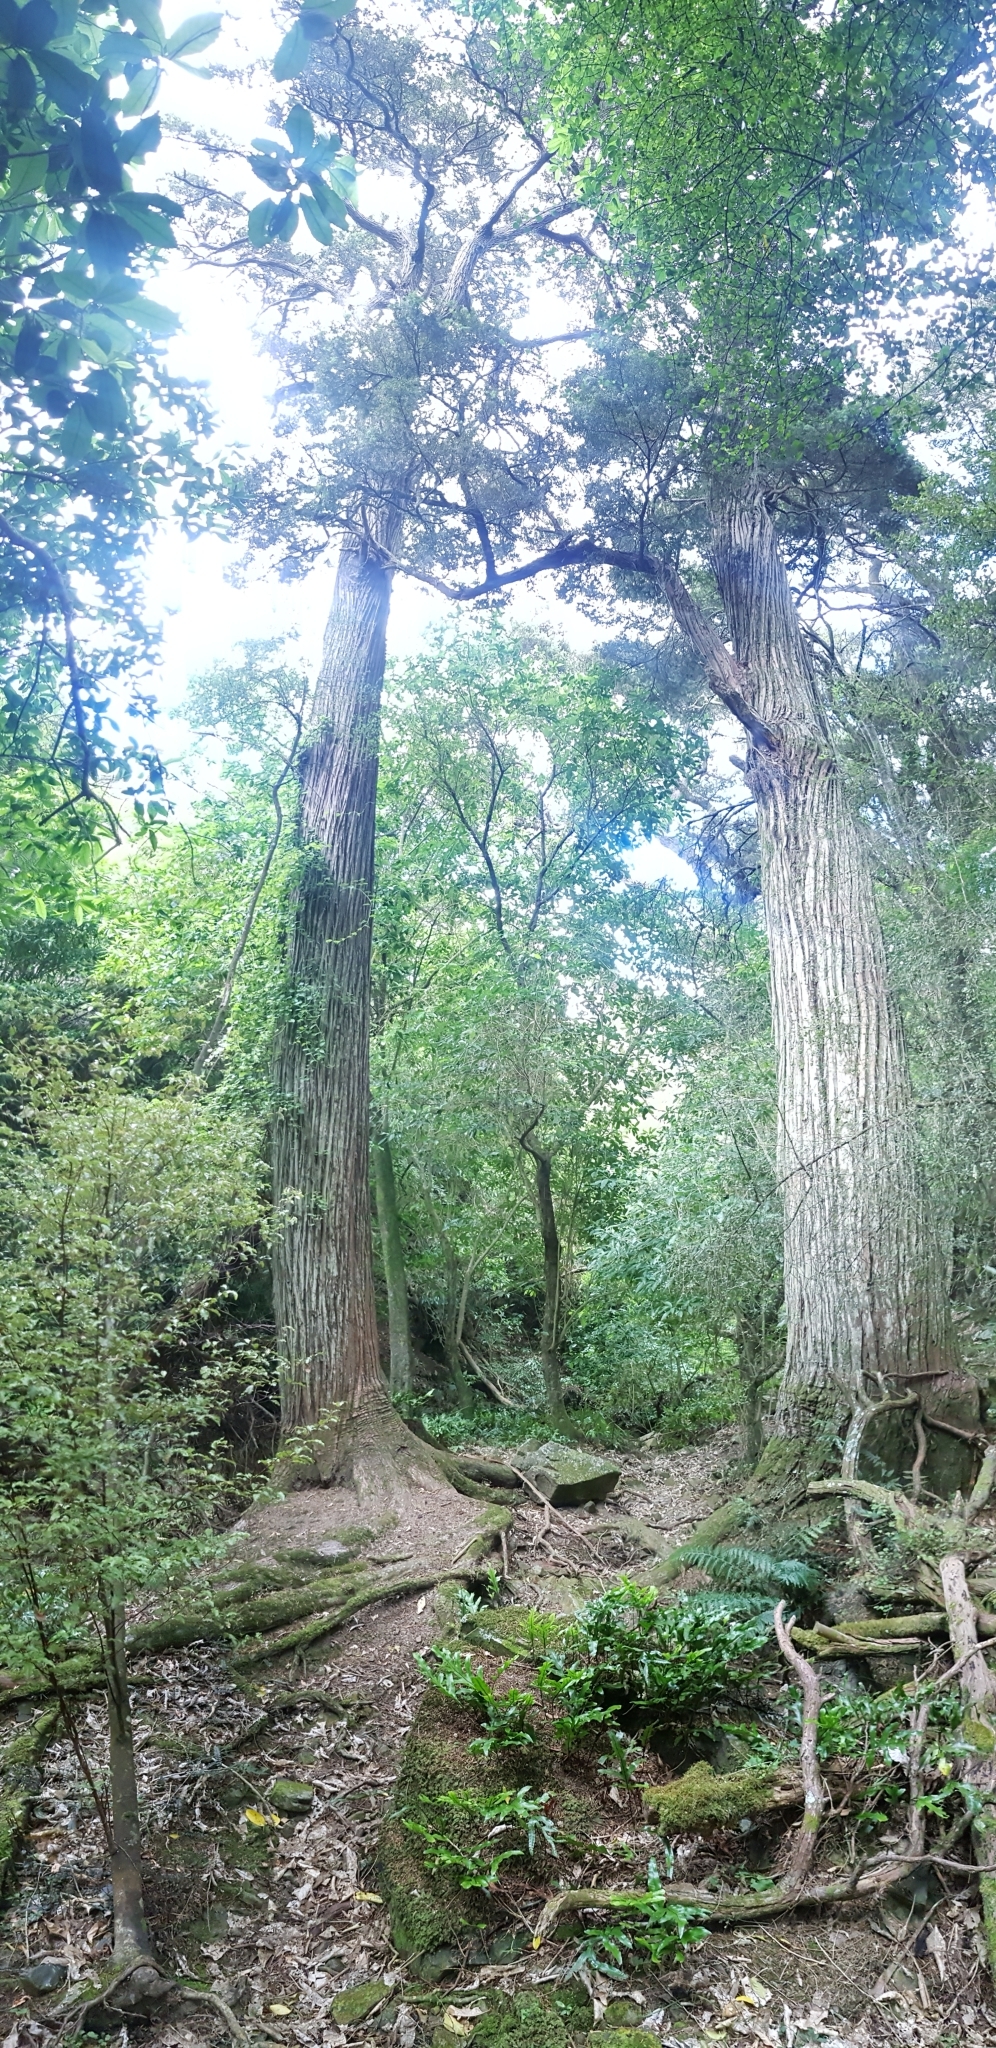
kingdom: Plantae
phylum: Tracheophyta
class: Pinopsida
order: Pinales
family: Podocarpaceae
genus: Podocarpus
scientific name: Podocarpus totara
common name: Totara
